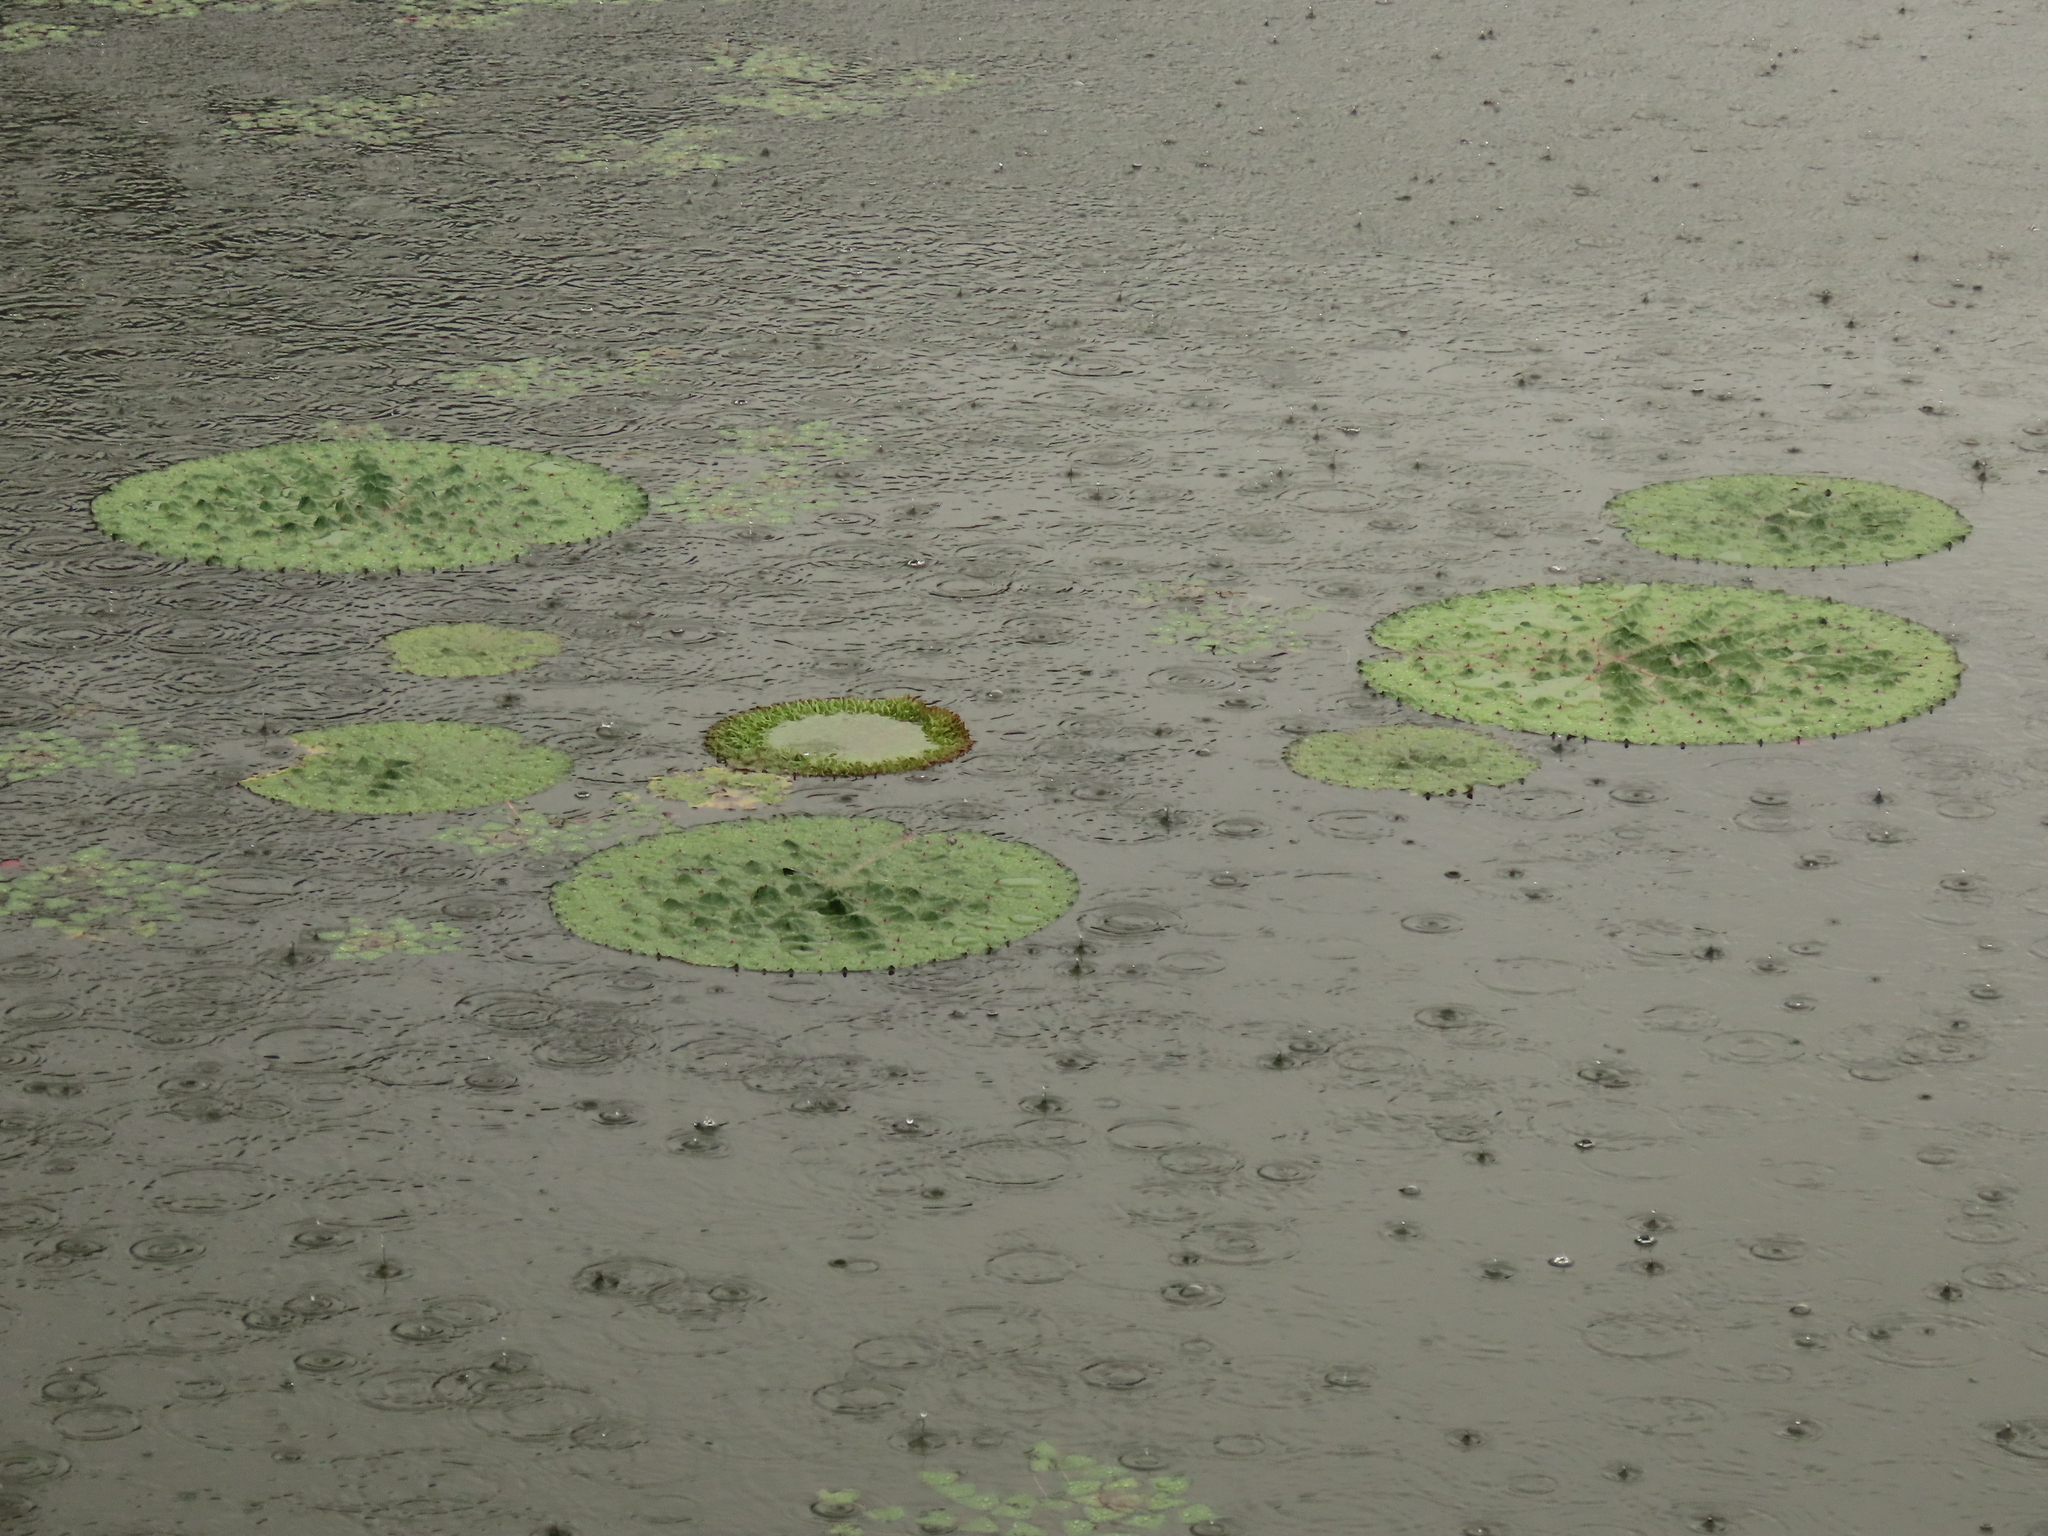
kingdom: Plantae
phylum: Tracheophyta
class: Magnoliopsida
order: Nymphaeales
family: Nymphaeaceae
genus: Euryale
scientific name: Euryale ferox
